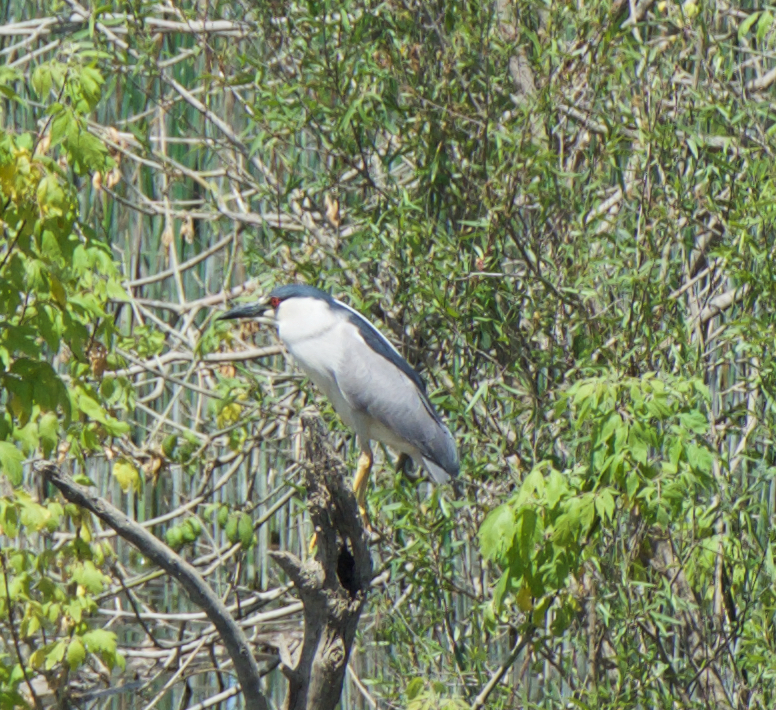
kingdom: Animalia
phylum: Chordata
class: Aves
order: Pelecaniformes
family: Ardeidae
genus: Nycticorax
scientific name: Nycticorax nycticorax
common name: Black-crowned night heron
